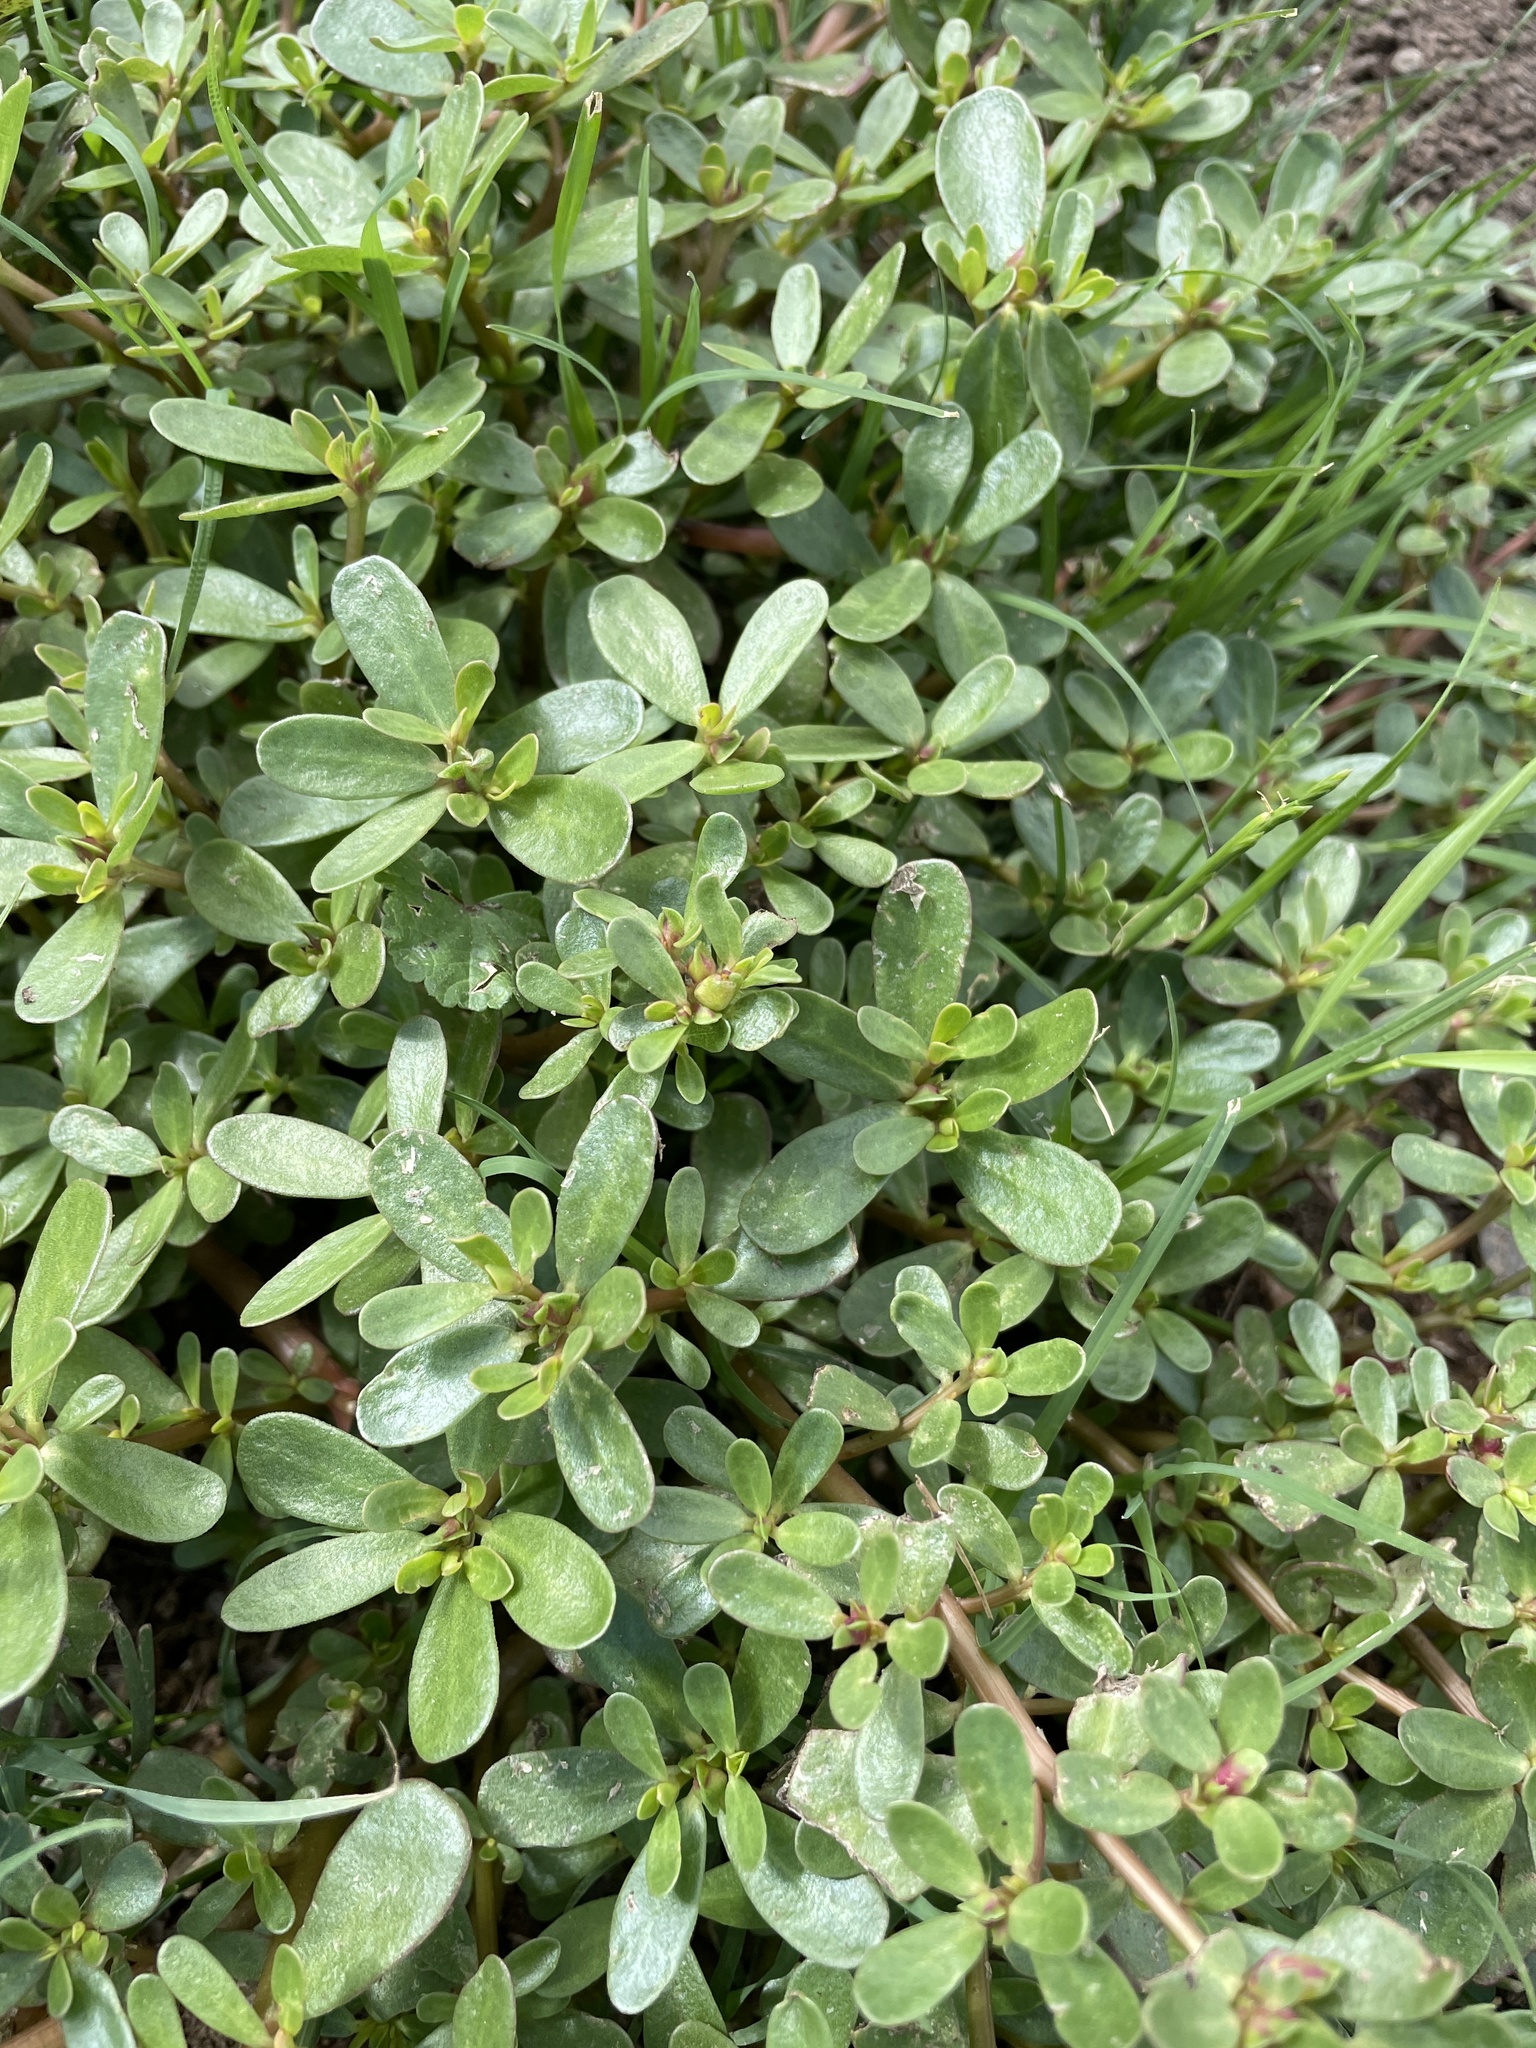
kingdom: Plantae
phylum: Tracheophyta
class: Magnoliopsida
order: Caryophyllales
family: Portulacaceae
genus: Portulaca
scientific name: Portulaca oleracea
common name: Common purslane
